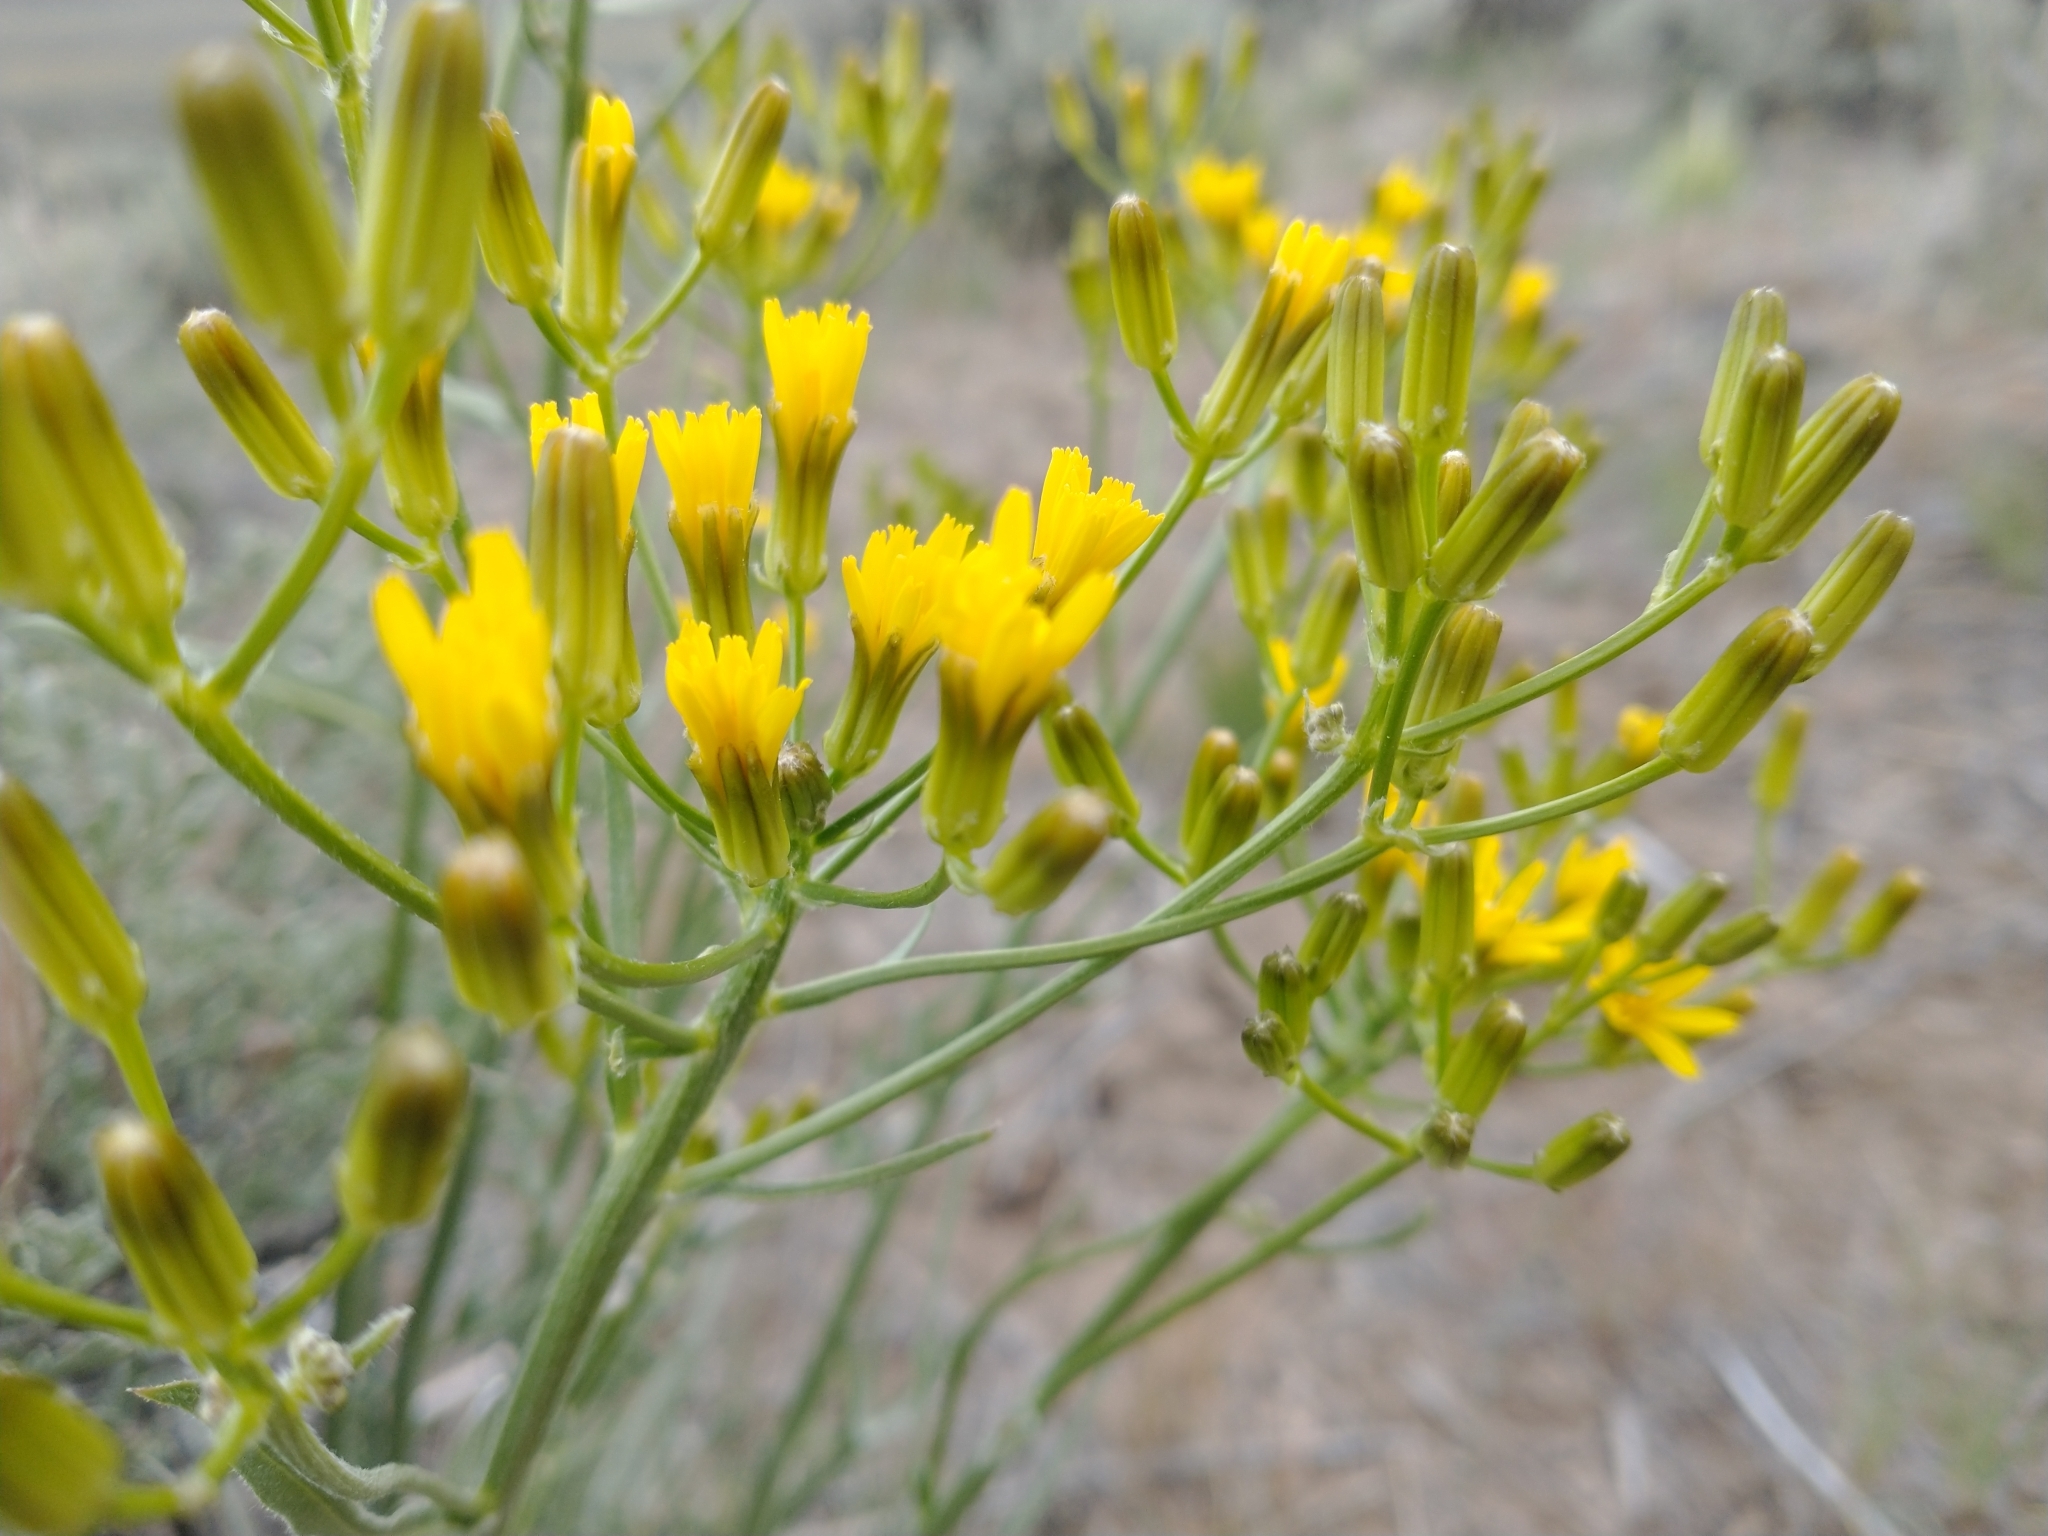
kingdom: Plantae
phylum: Tracheophyta
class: Magnoliopsida
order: Asterales
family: Asteraceae
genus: Crepis
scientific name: Crepis acuminata
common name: Longleaf hawk's-beard
